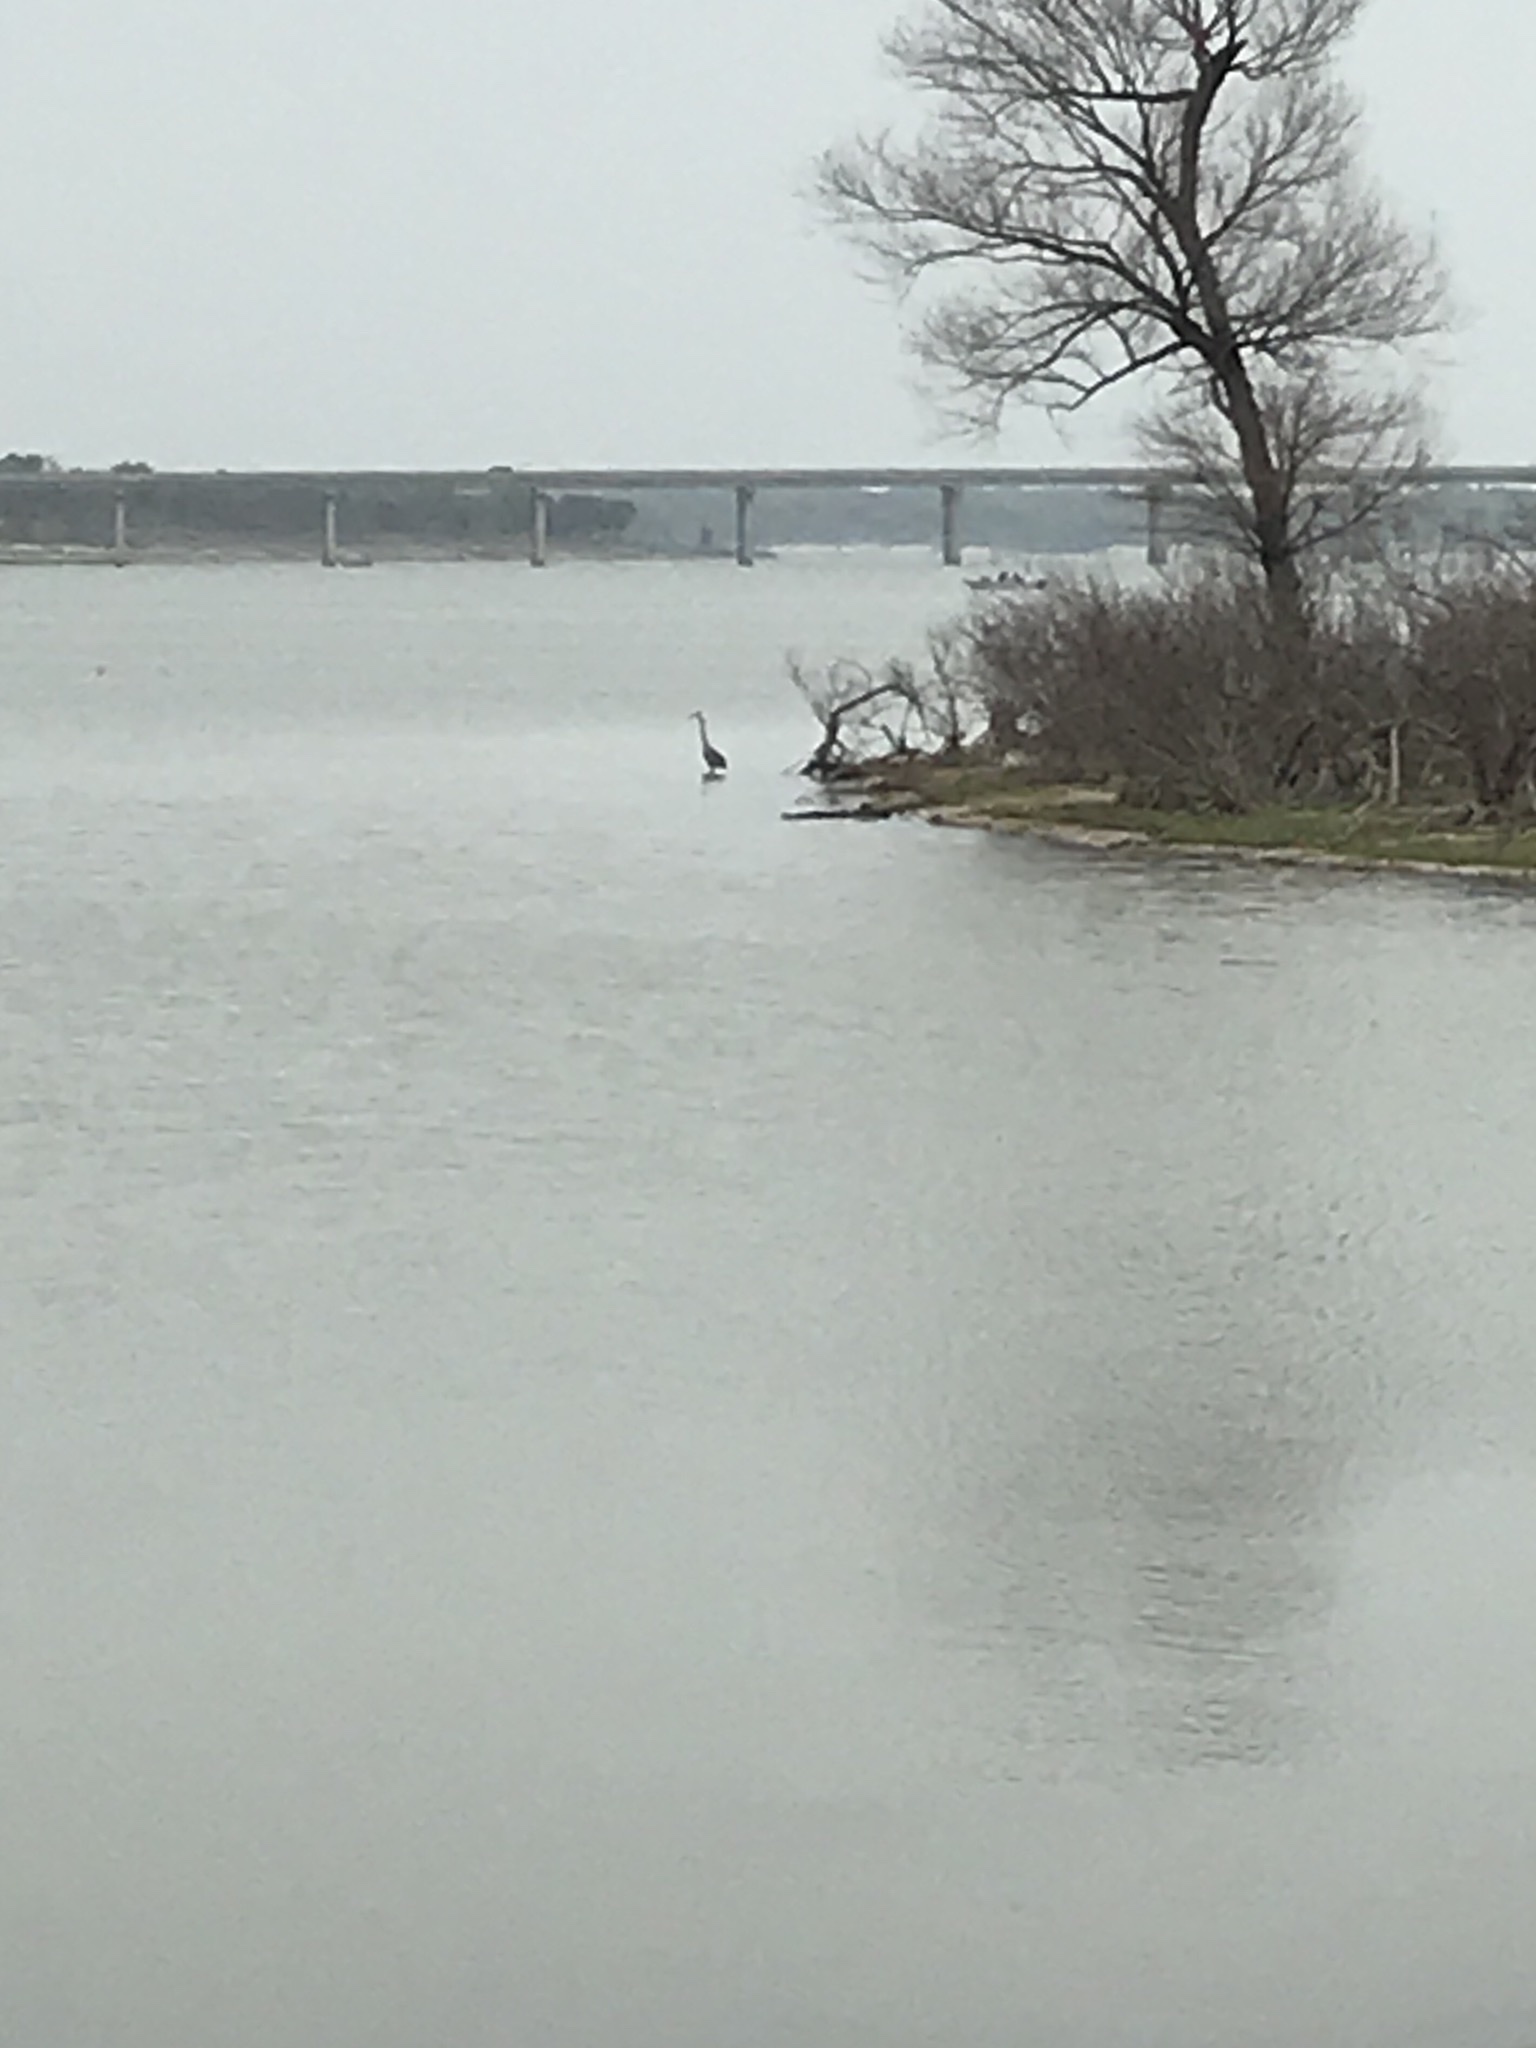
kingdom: Animalia
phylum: Chordata
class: Aves
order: Pelecaniformes
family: Ardeidae
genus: Ardea
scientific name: Ardea herodias
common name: Great blue heron
